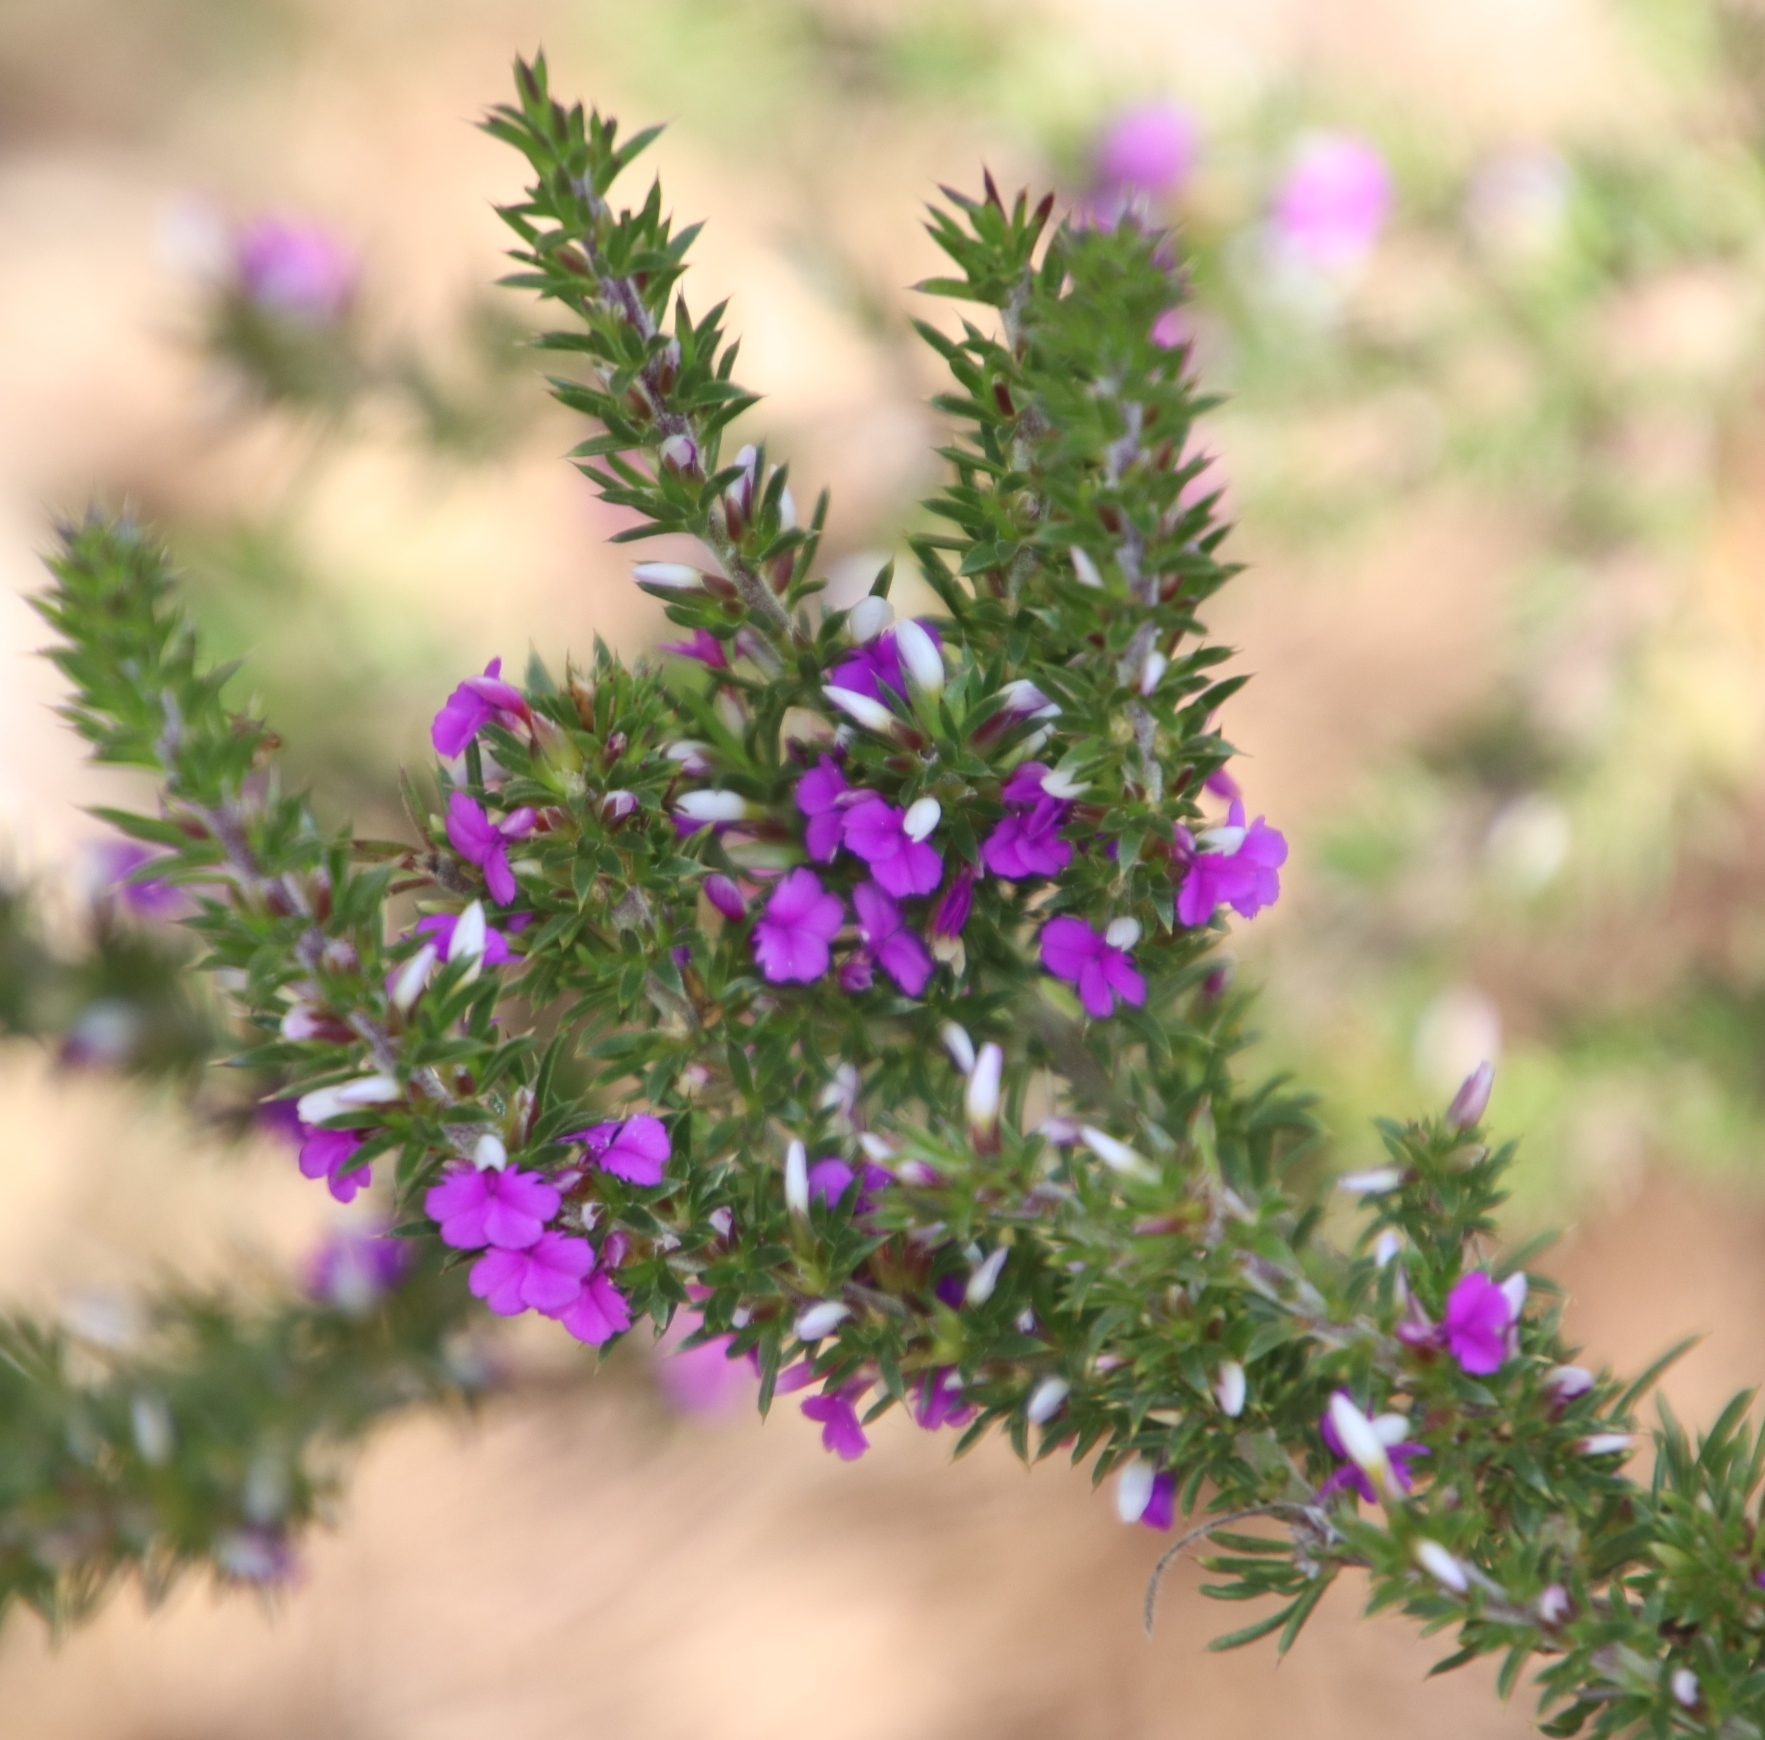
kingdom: Plantae
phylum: Tracheophyta
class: Magnoliopsida
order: Fabales
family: Polygalaceae
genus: Muraltia
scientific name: Muraltia heisteria
